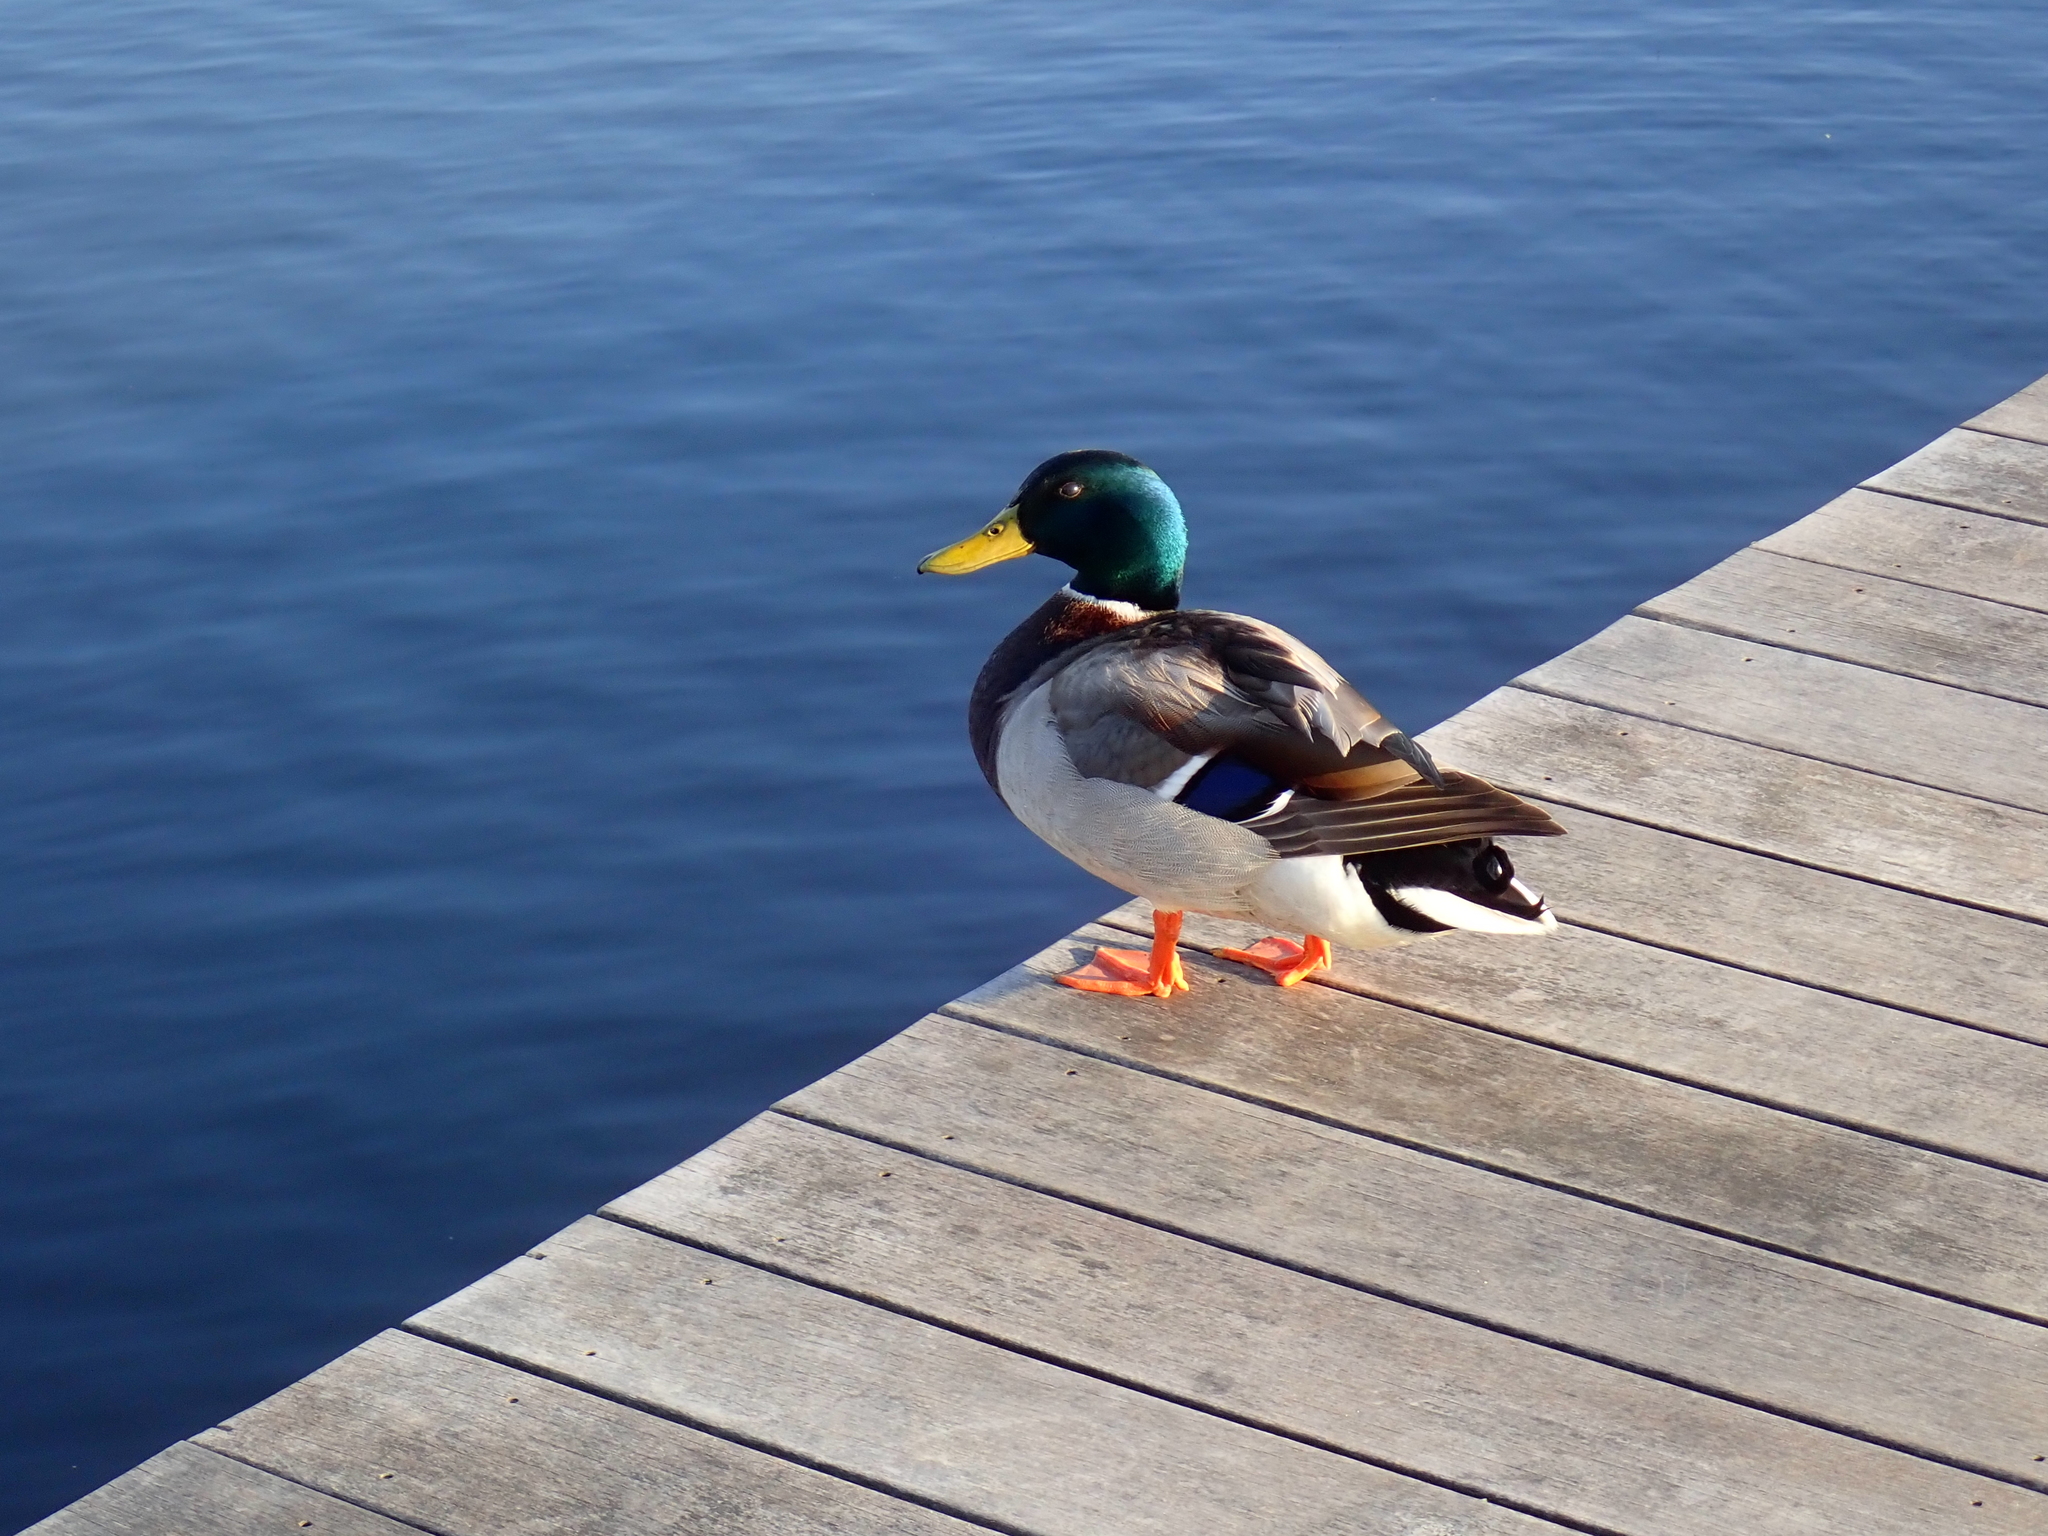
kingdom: Animalia
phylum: Chordata
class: Aves
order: Anseriformes
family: Anatidae
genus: Anas
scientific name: Anas platyrhynchos
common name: Mallard
